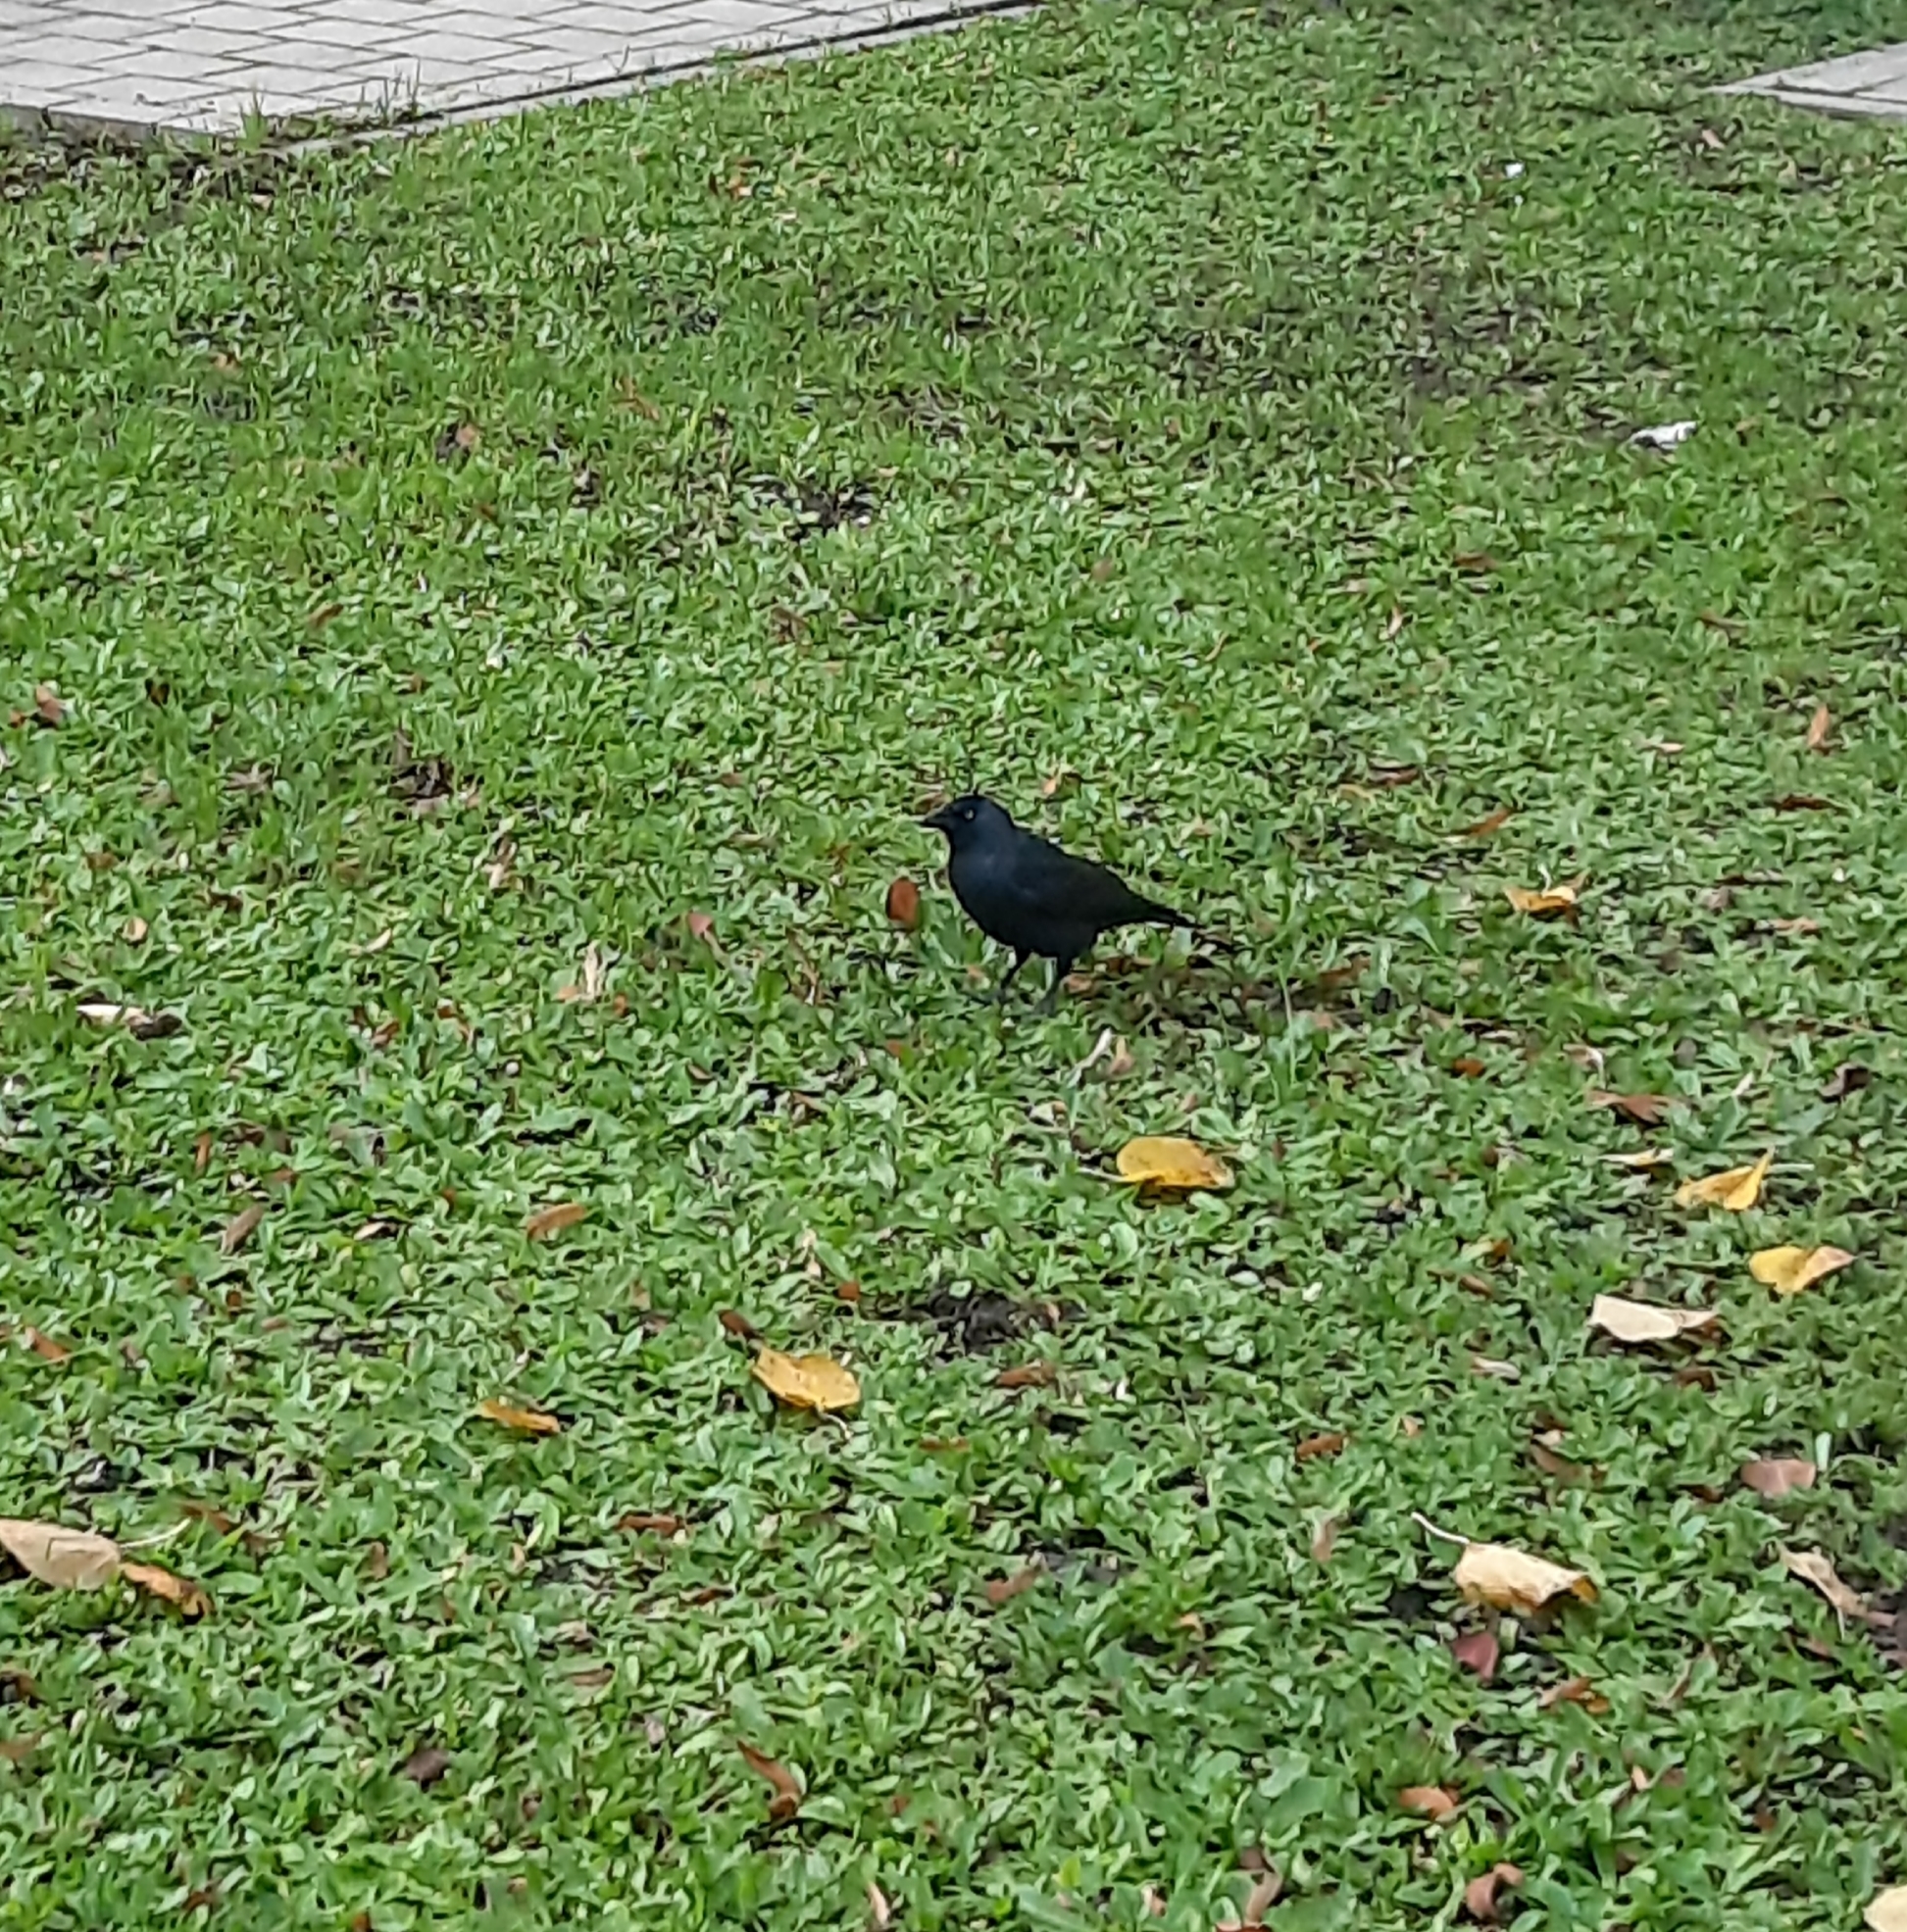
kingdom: Animalia
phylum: Chordata
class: Aves
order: Passeriformes
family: Corvidae
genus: Coloeus
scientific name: Coloeus monedula
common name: Western jackdaw
